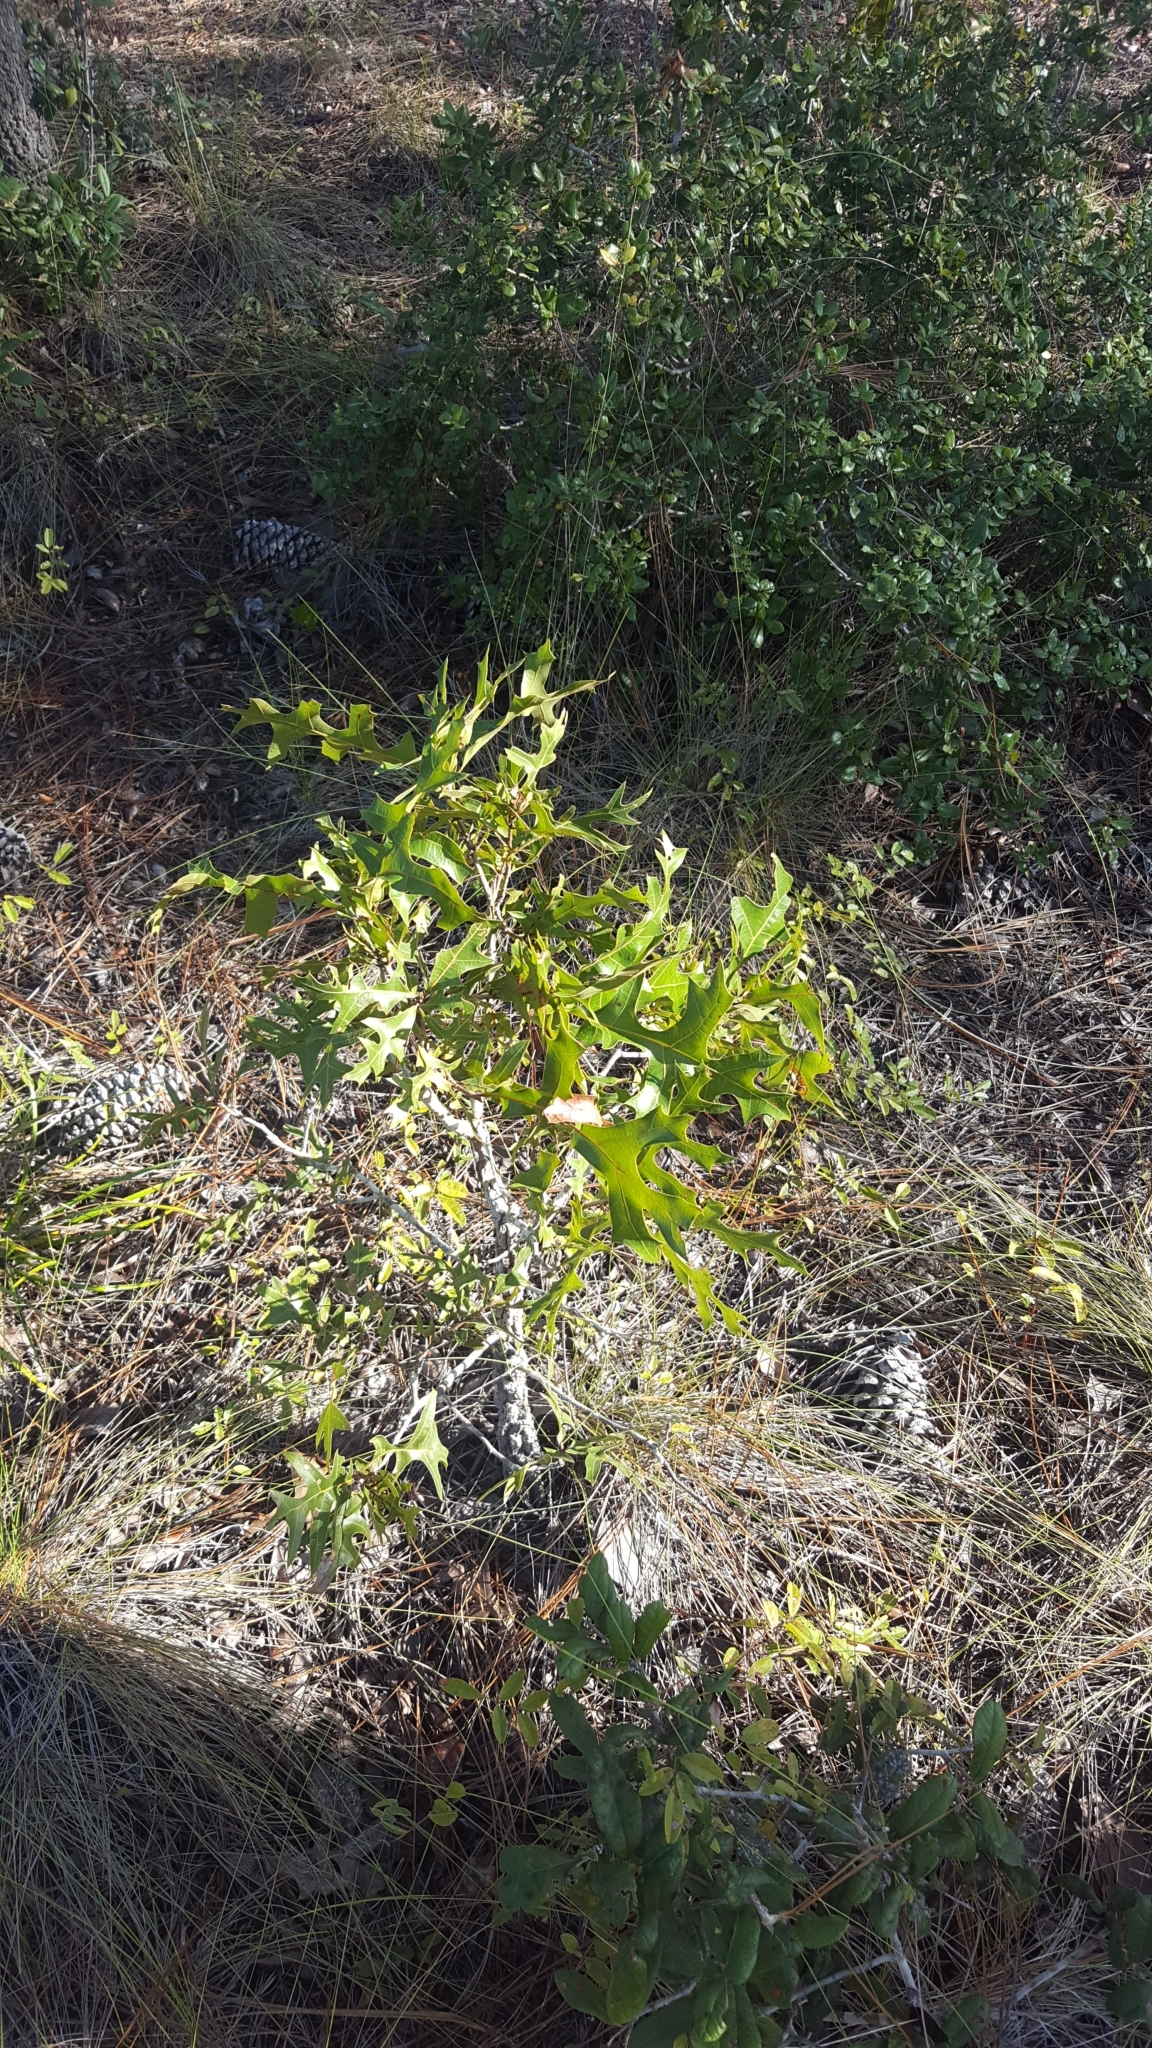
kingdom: Plantae
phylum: Tracheophyta
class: Magnoliopsida
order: Fagales
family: Fagaceae
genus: Quercus
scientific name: Quercus laevis
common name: Turkey oak
